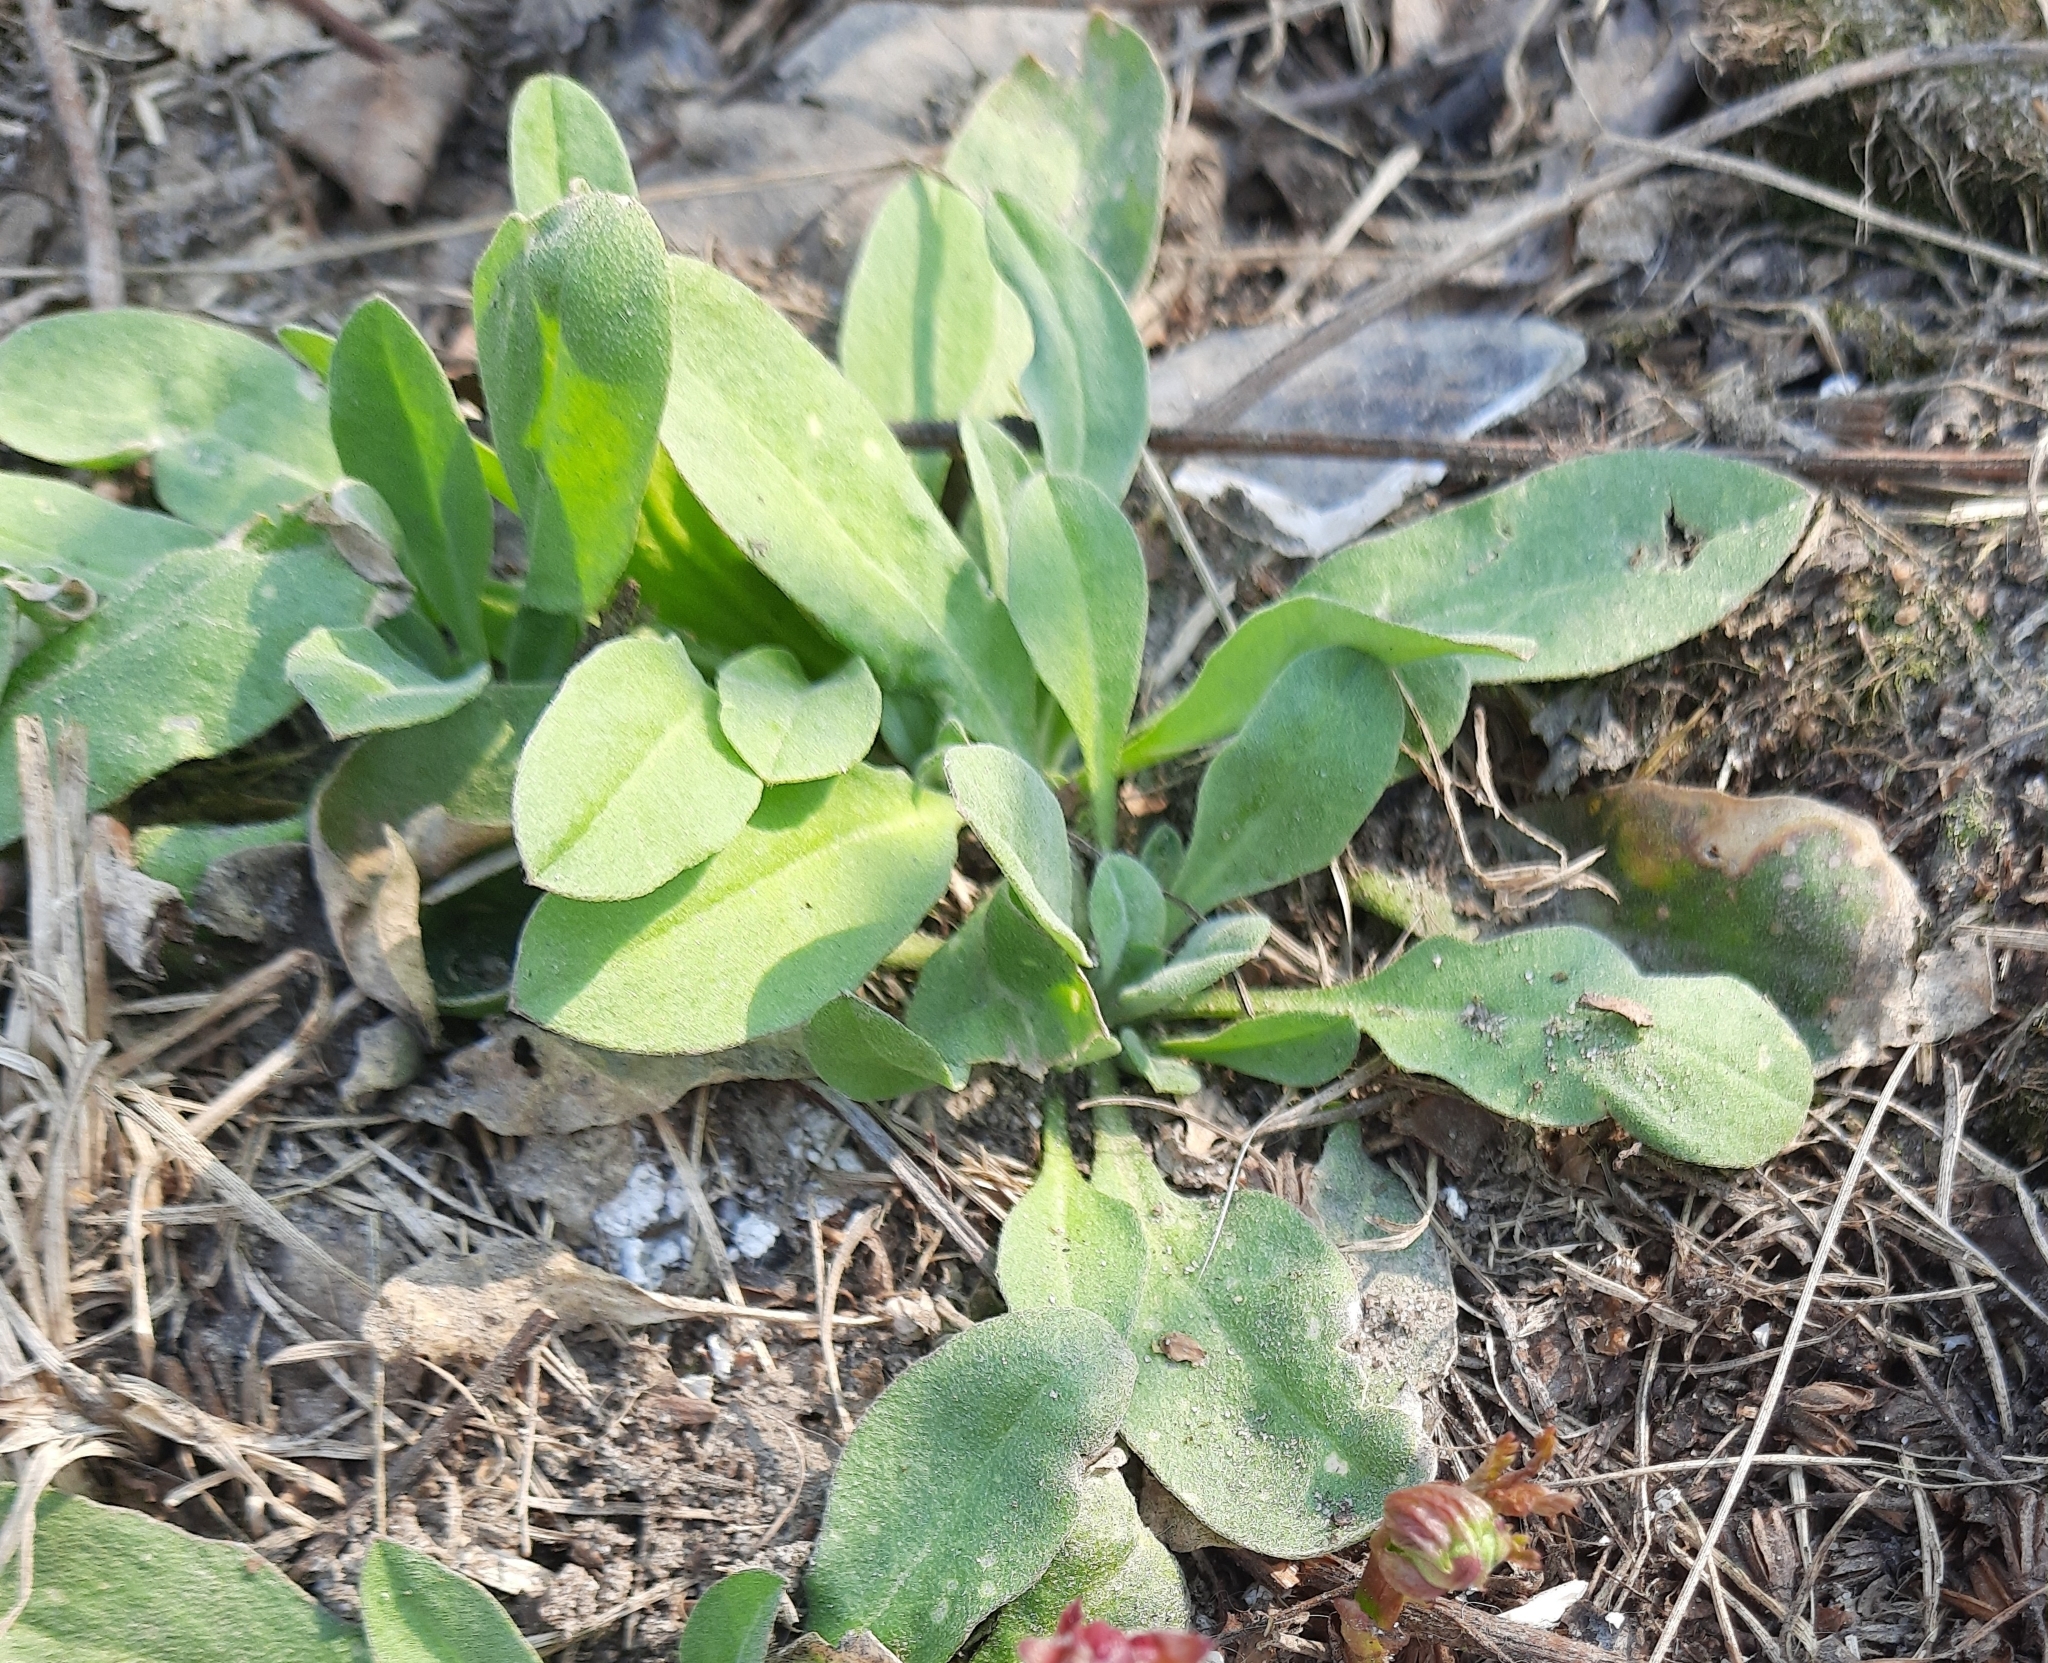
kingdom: Plantae
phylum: Tracheophyta
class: Magnoliopsida
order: Brassicales
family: Brassicaceae
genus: Berteroa
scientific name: Berteroa incana
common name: Hoary alison
